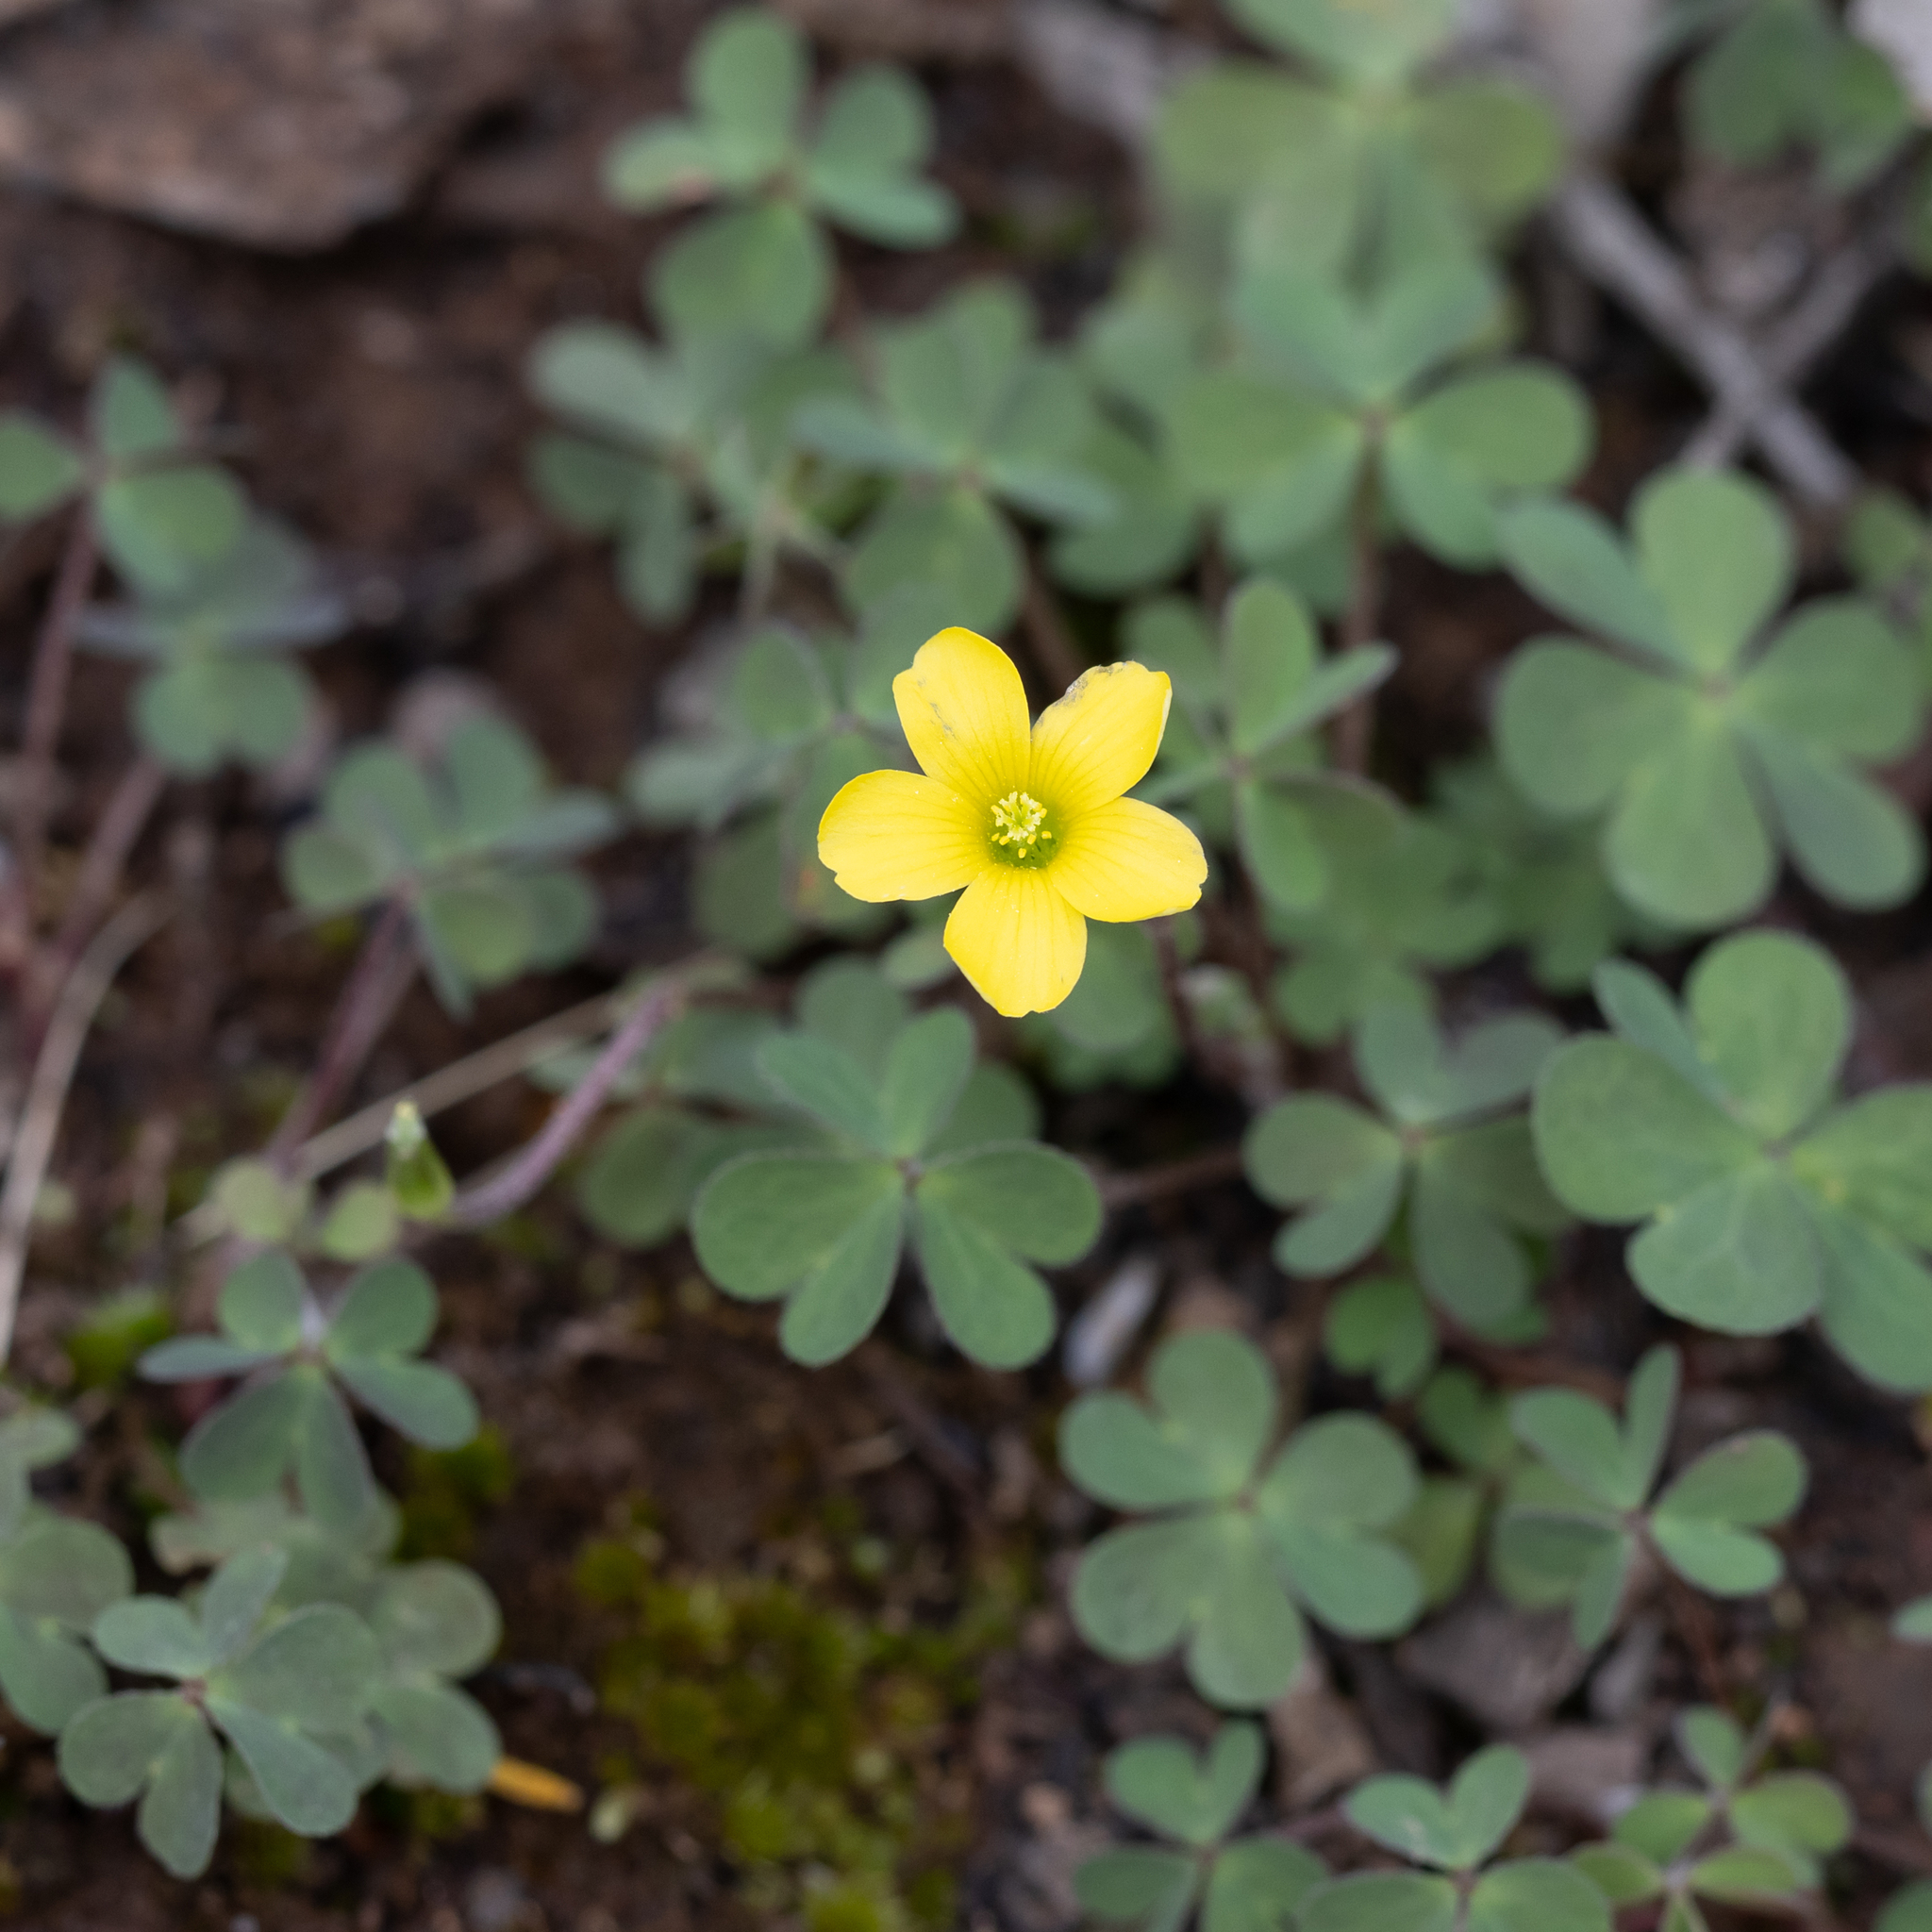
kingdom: Plantae
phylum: Tracheophyta
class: Magnoliopsida
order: Oxalidales
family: Oxalidaceae
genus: Oxalis
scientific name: Oxalis perennans
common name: Woody-rooted yellow-sorrel
